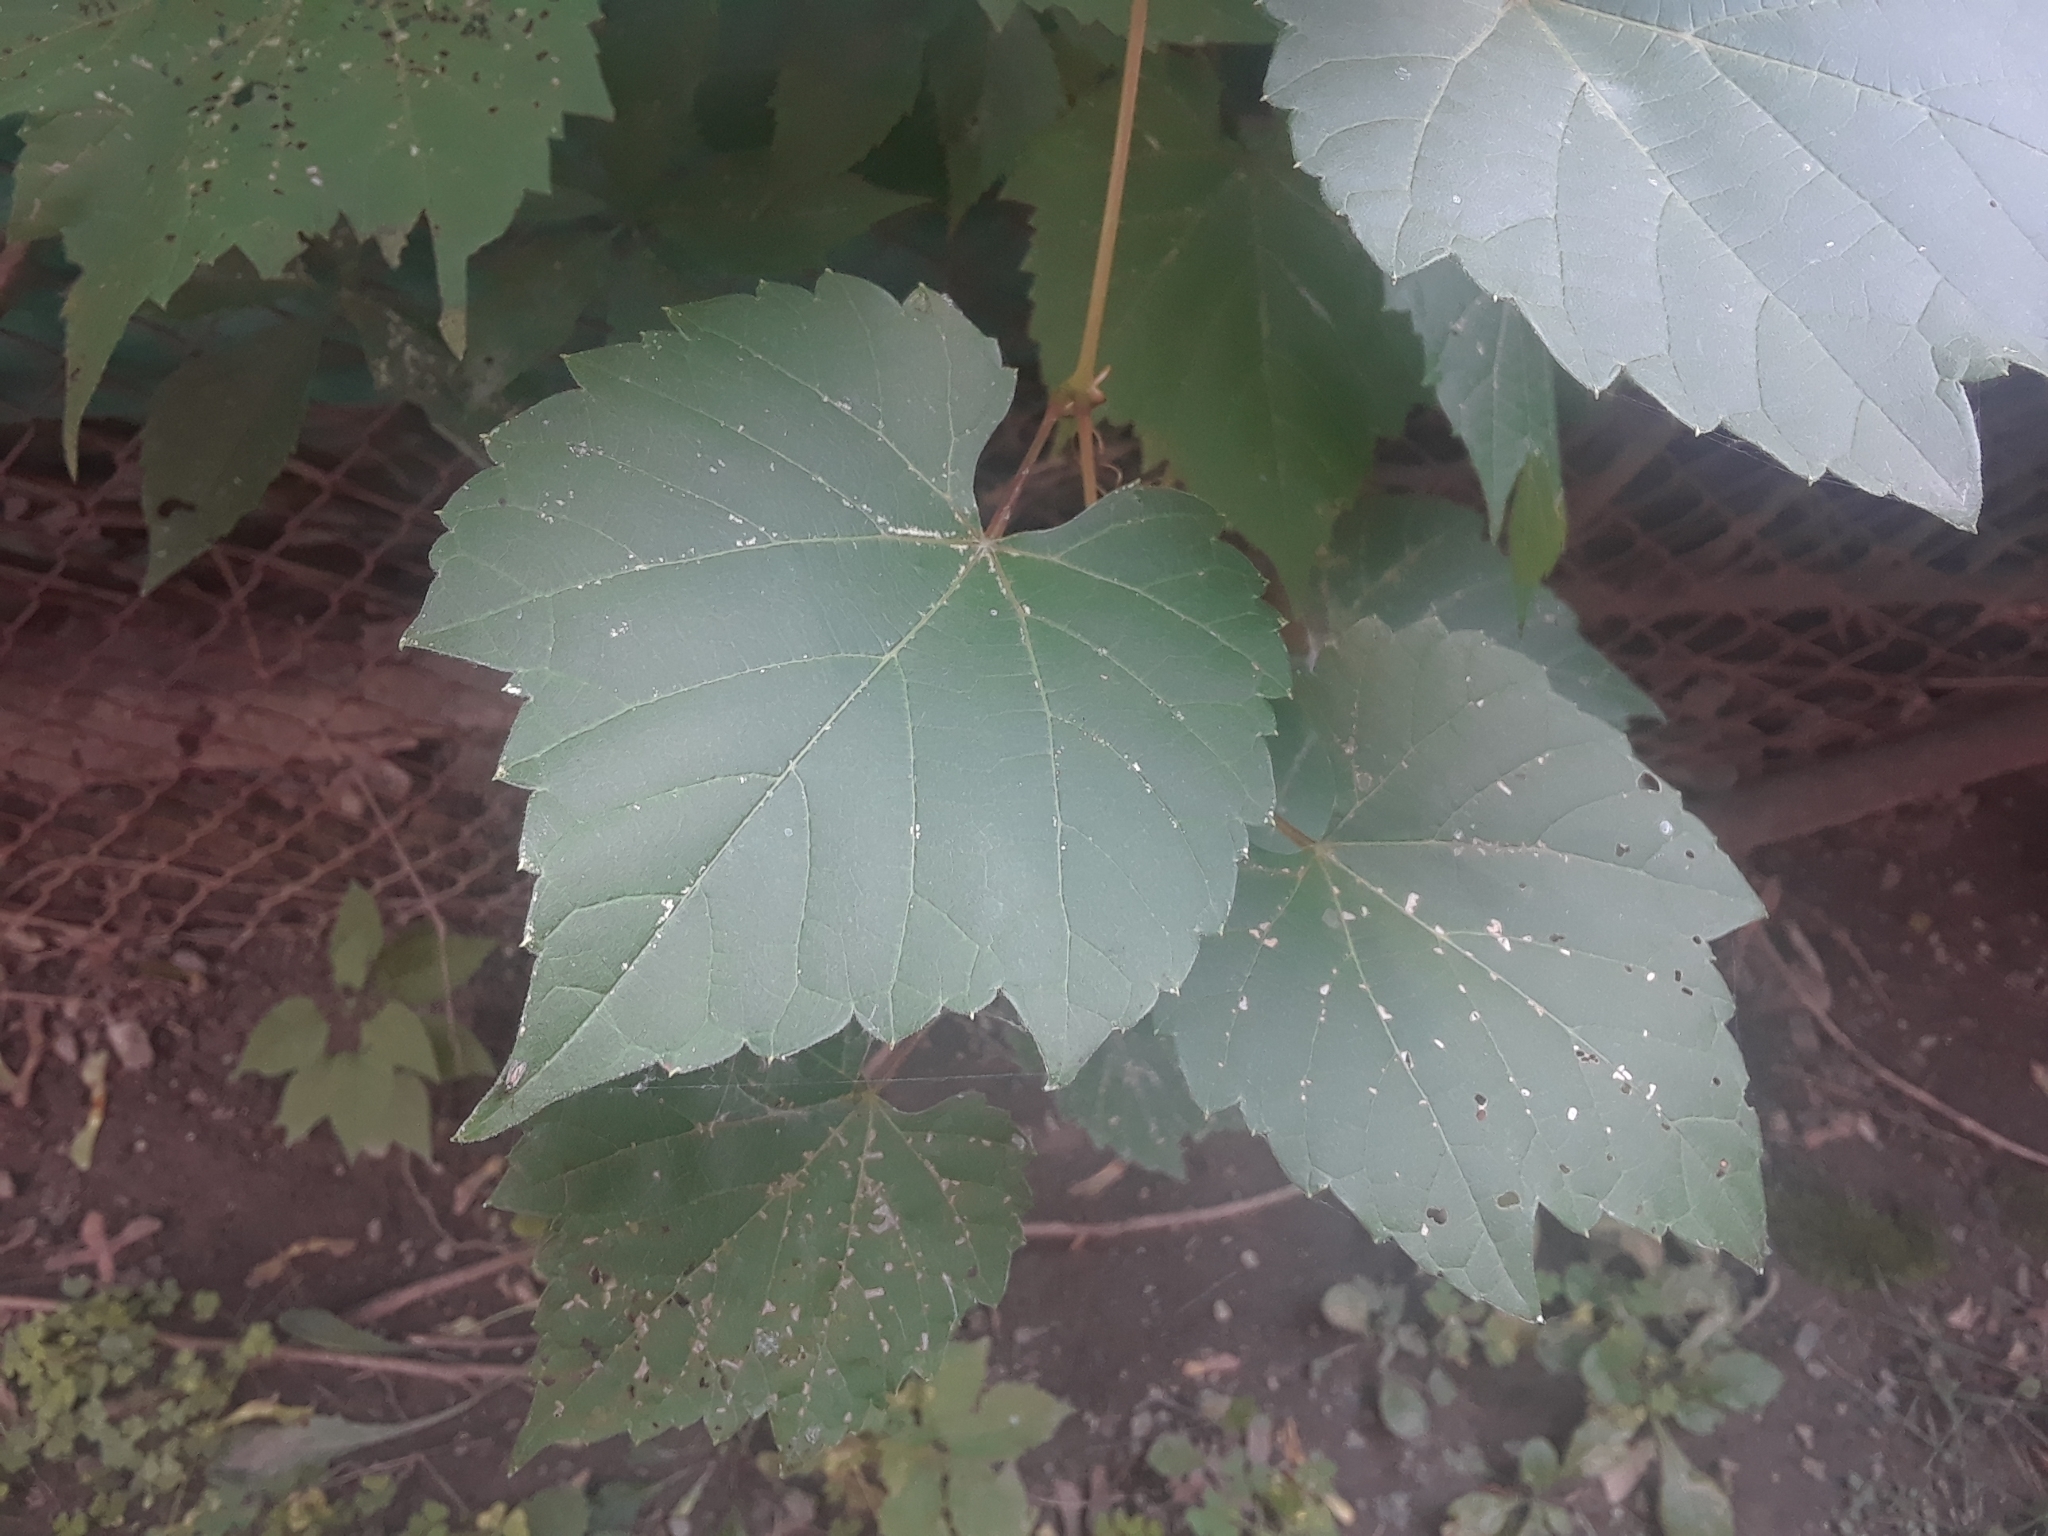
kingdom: Plantae
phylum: Tracheophyta
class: Magnoliopsida
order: Vitales
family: Vitaceae
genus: Vitis
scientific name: Vitis riparia
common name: Frost grape
